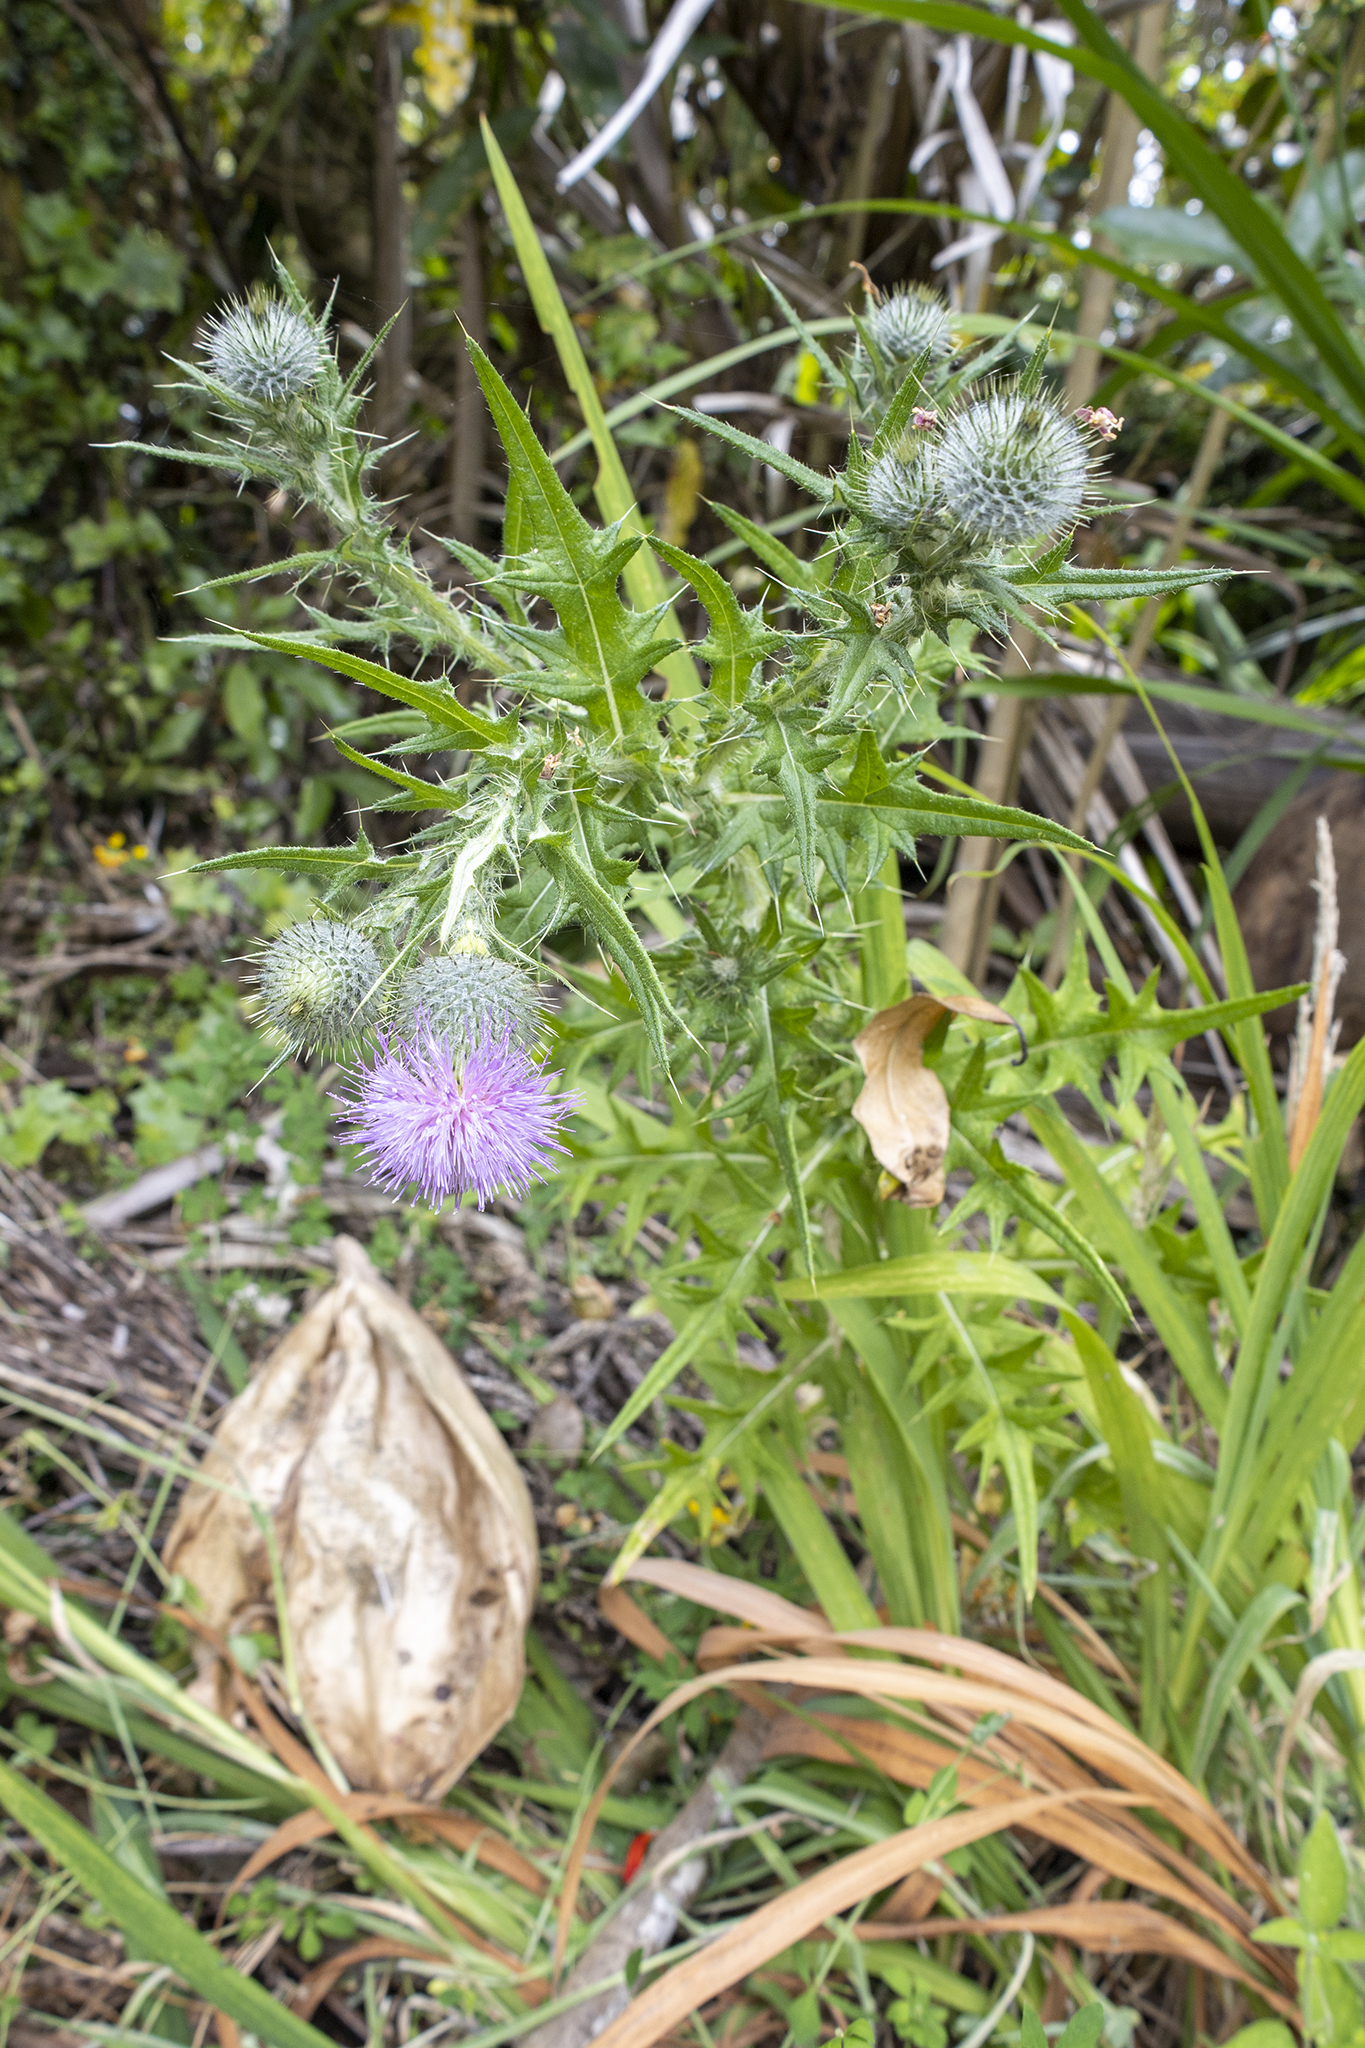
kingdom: Plantae
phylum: Tracheophyta
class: Magnoliopsida
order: Asterales
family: Asteraceae
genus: Cirsium
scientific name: Cirsium vulgare
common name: Bull thistle
